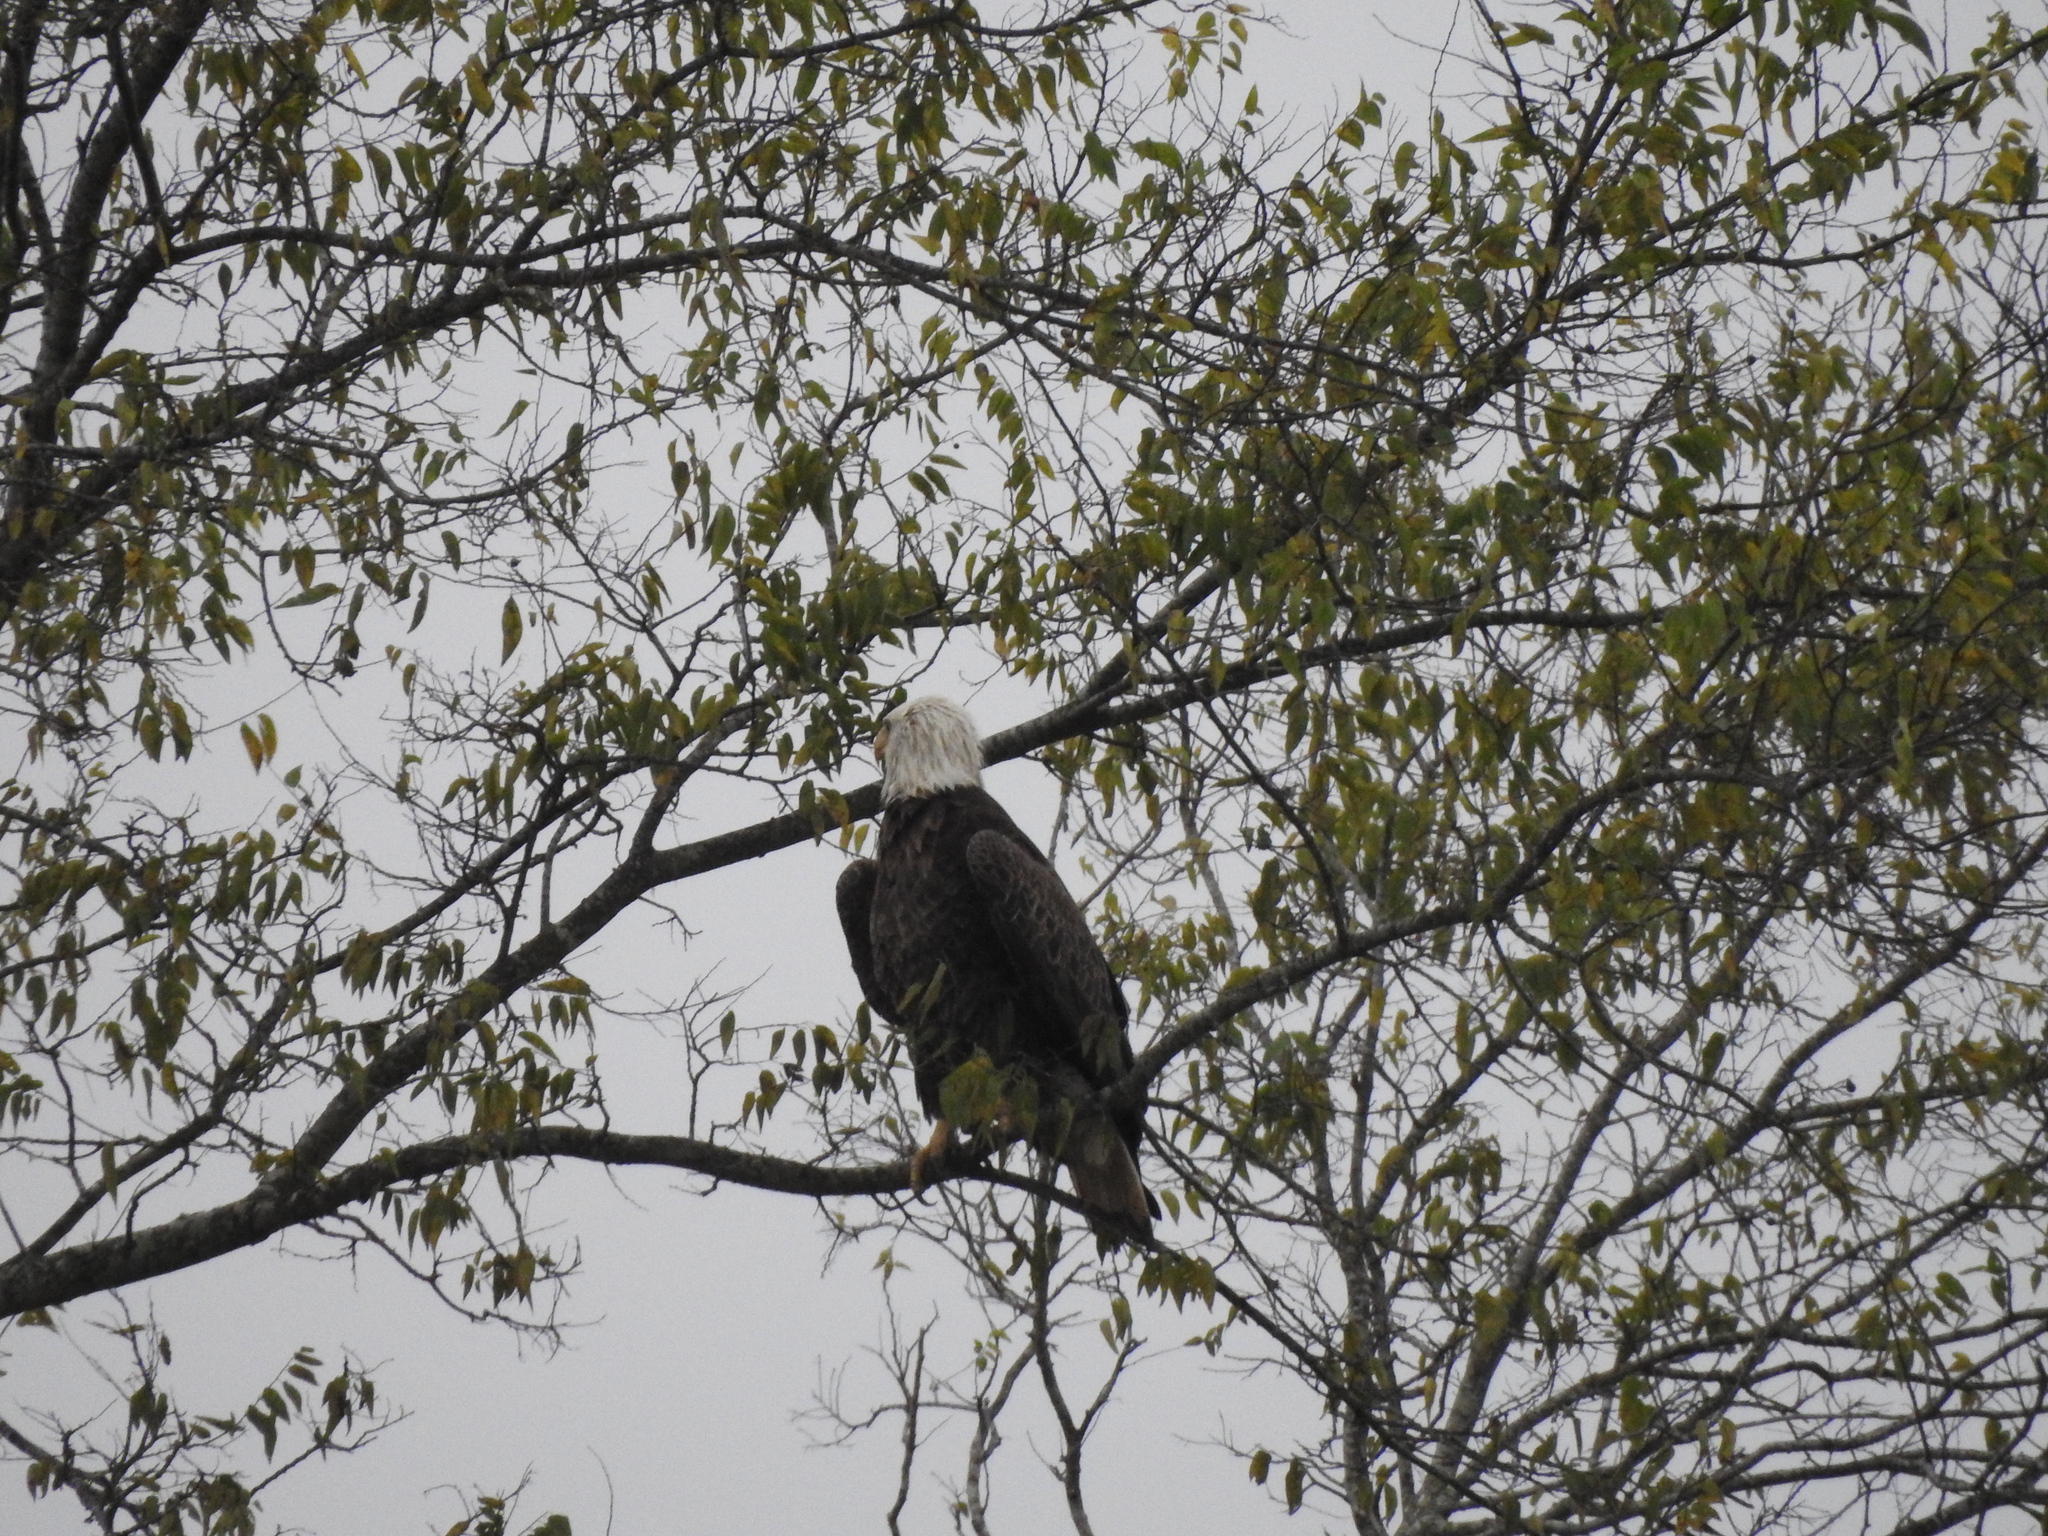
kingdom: Animalia
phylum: Chordata
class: Aves
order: Accipitriformes
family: Accipitridae
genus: Haliaeetus
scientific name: Haliaeetus leucocephalus
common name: Bald eagle
